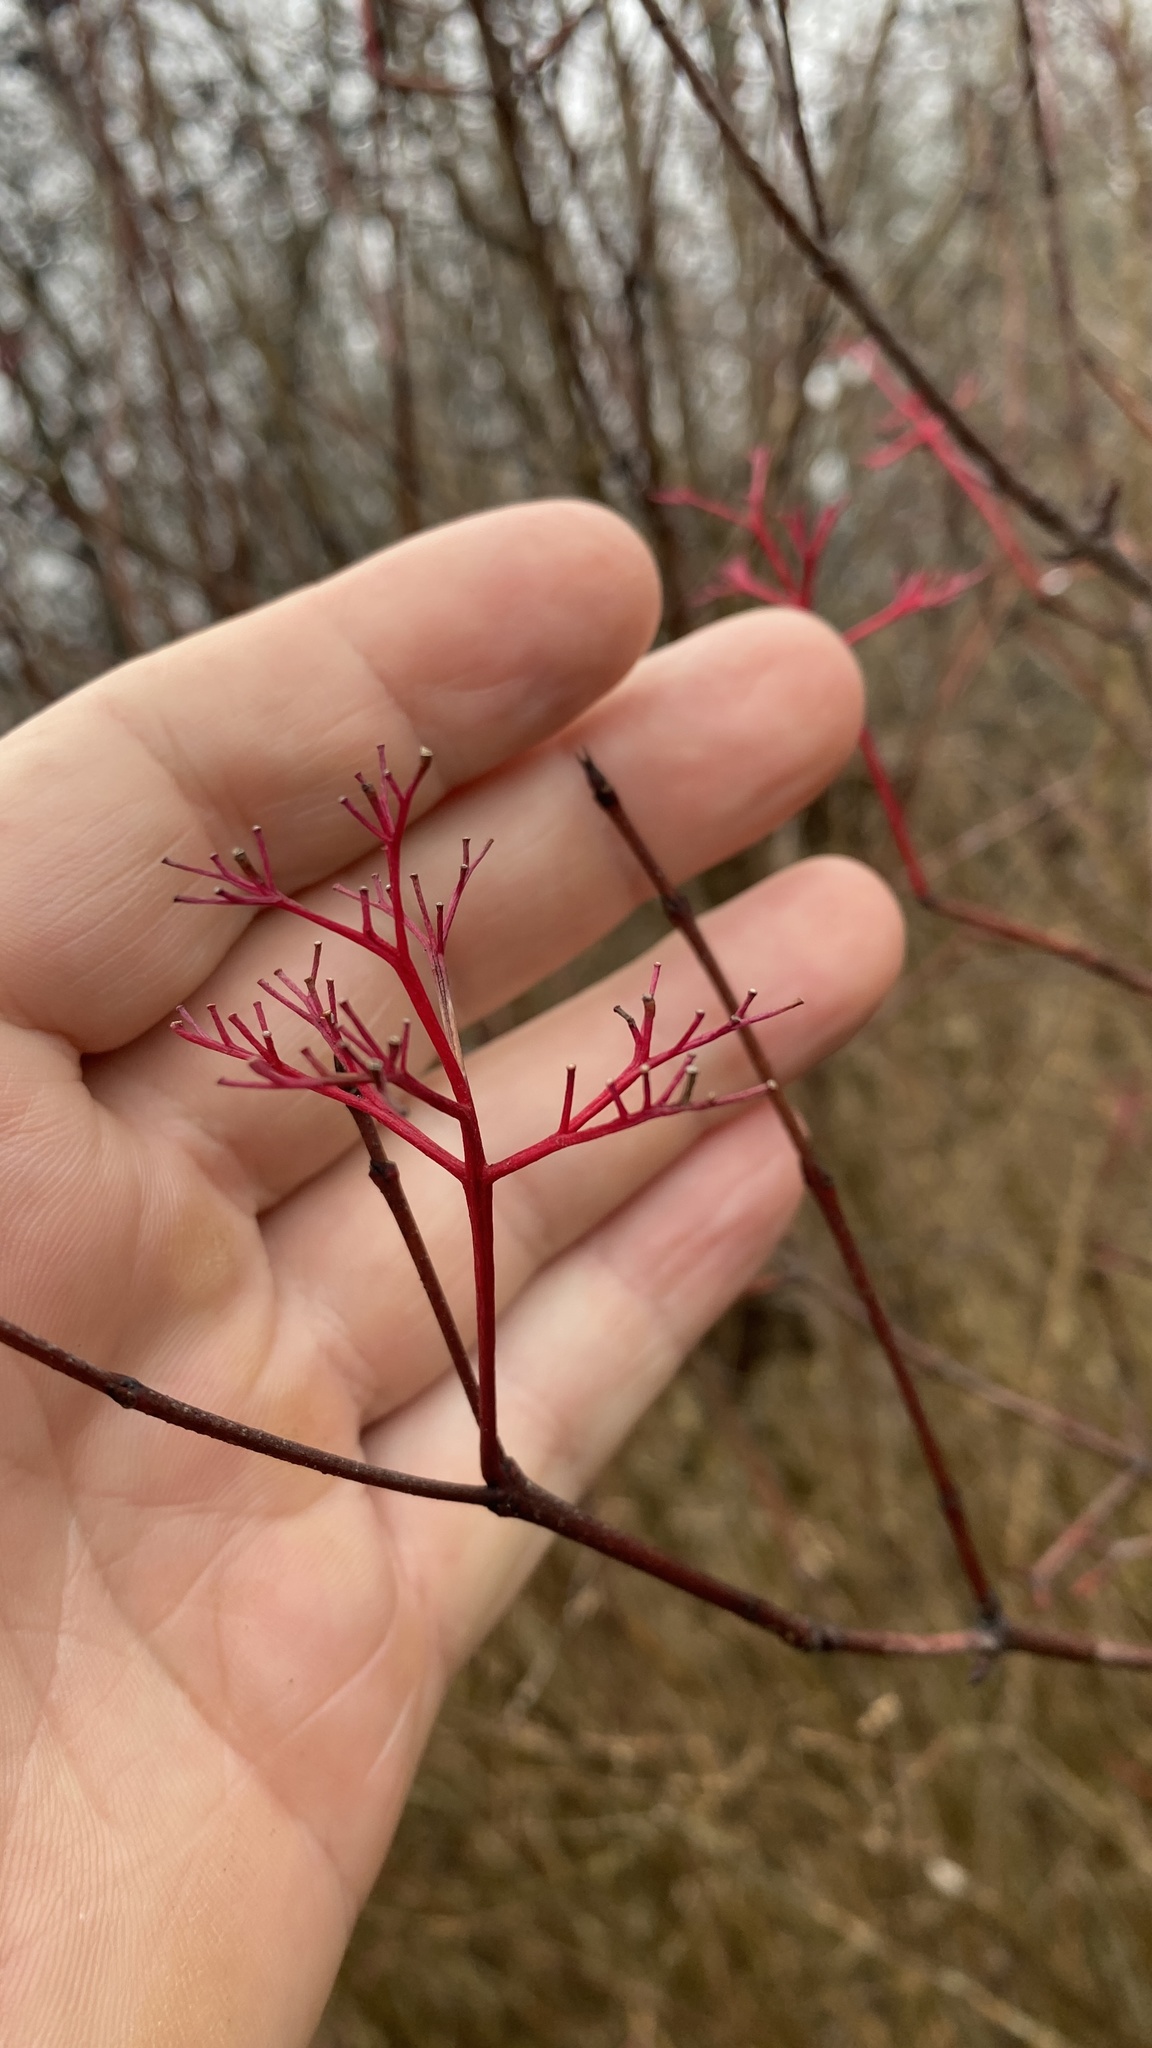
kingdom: Plantae
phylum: Tracheophyta
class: Magnoliopsida
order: Cornales
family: Cornaceae
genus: Cornus
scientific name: Cornus racemosa
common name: Panicled dogwood
